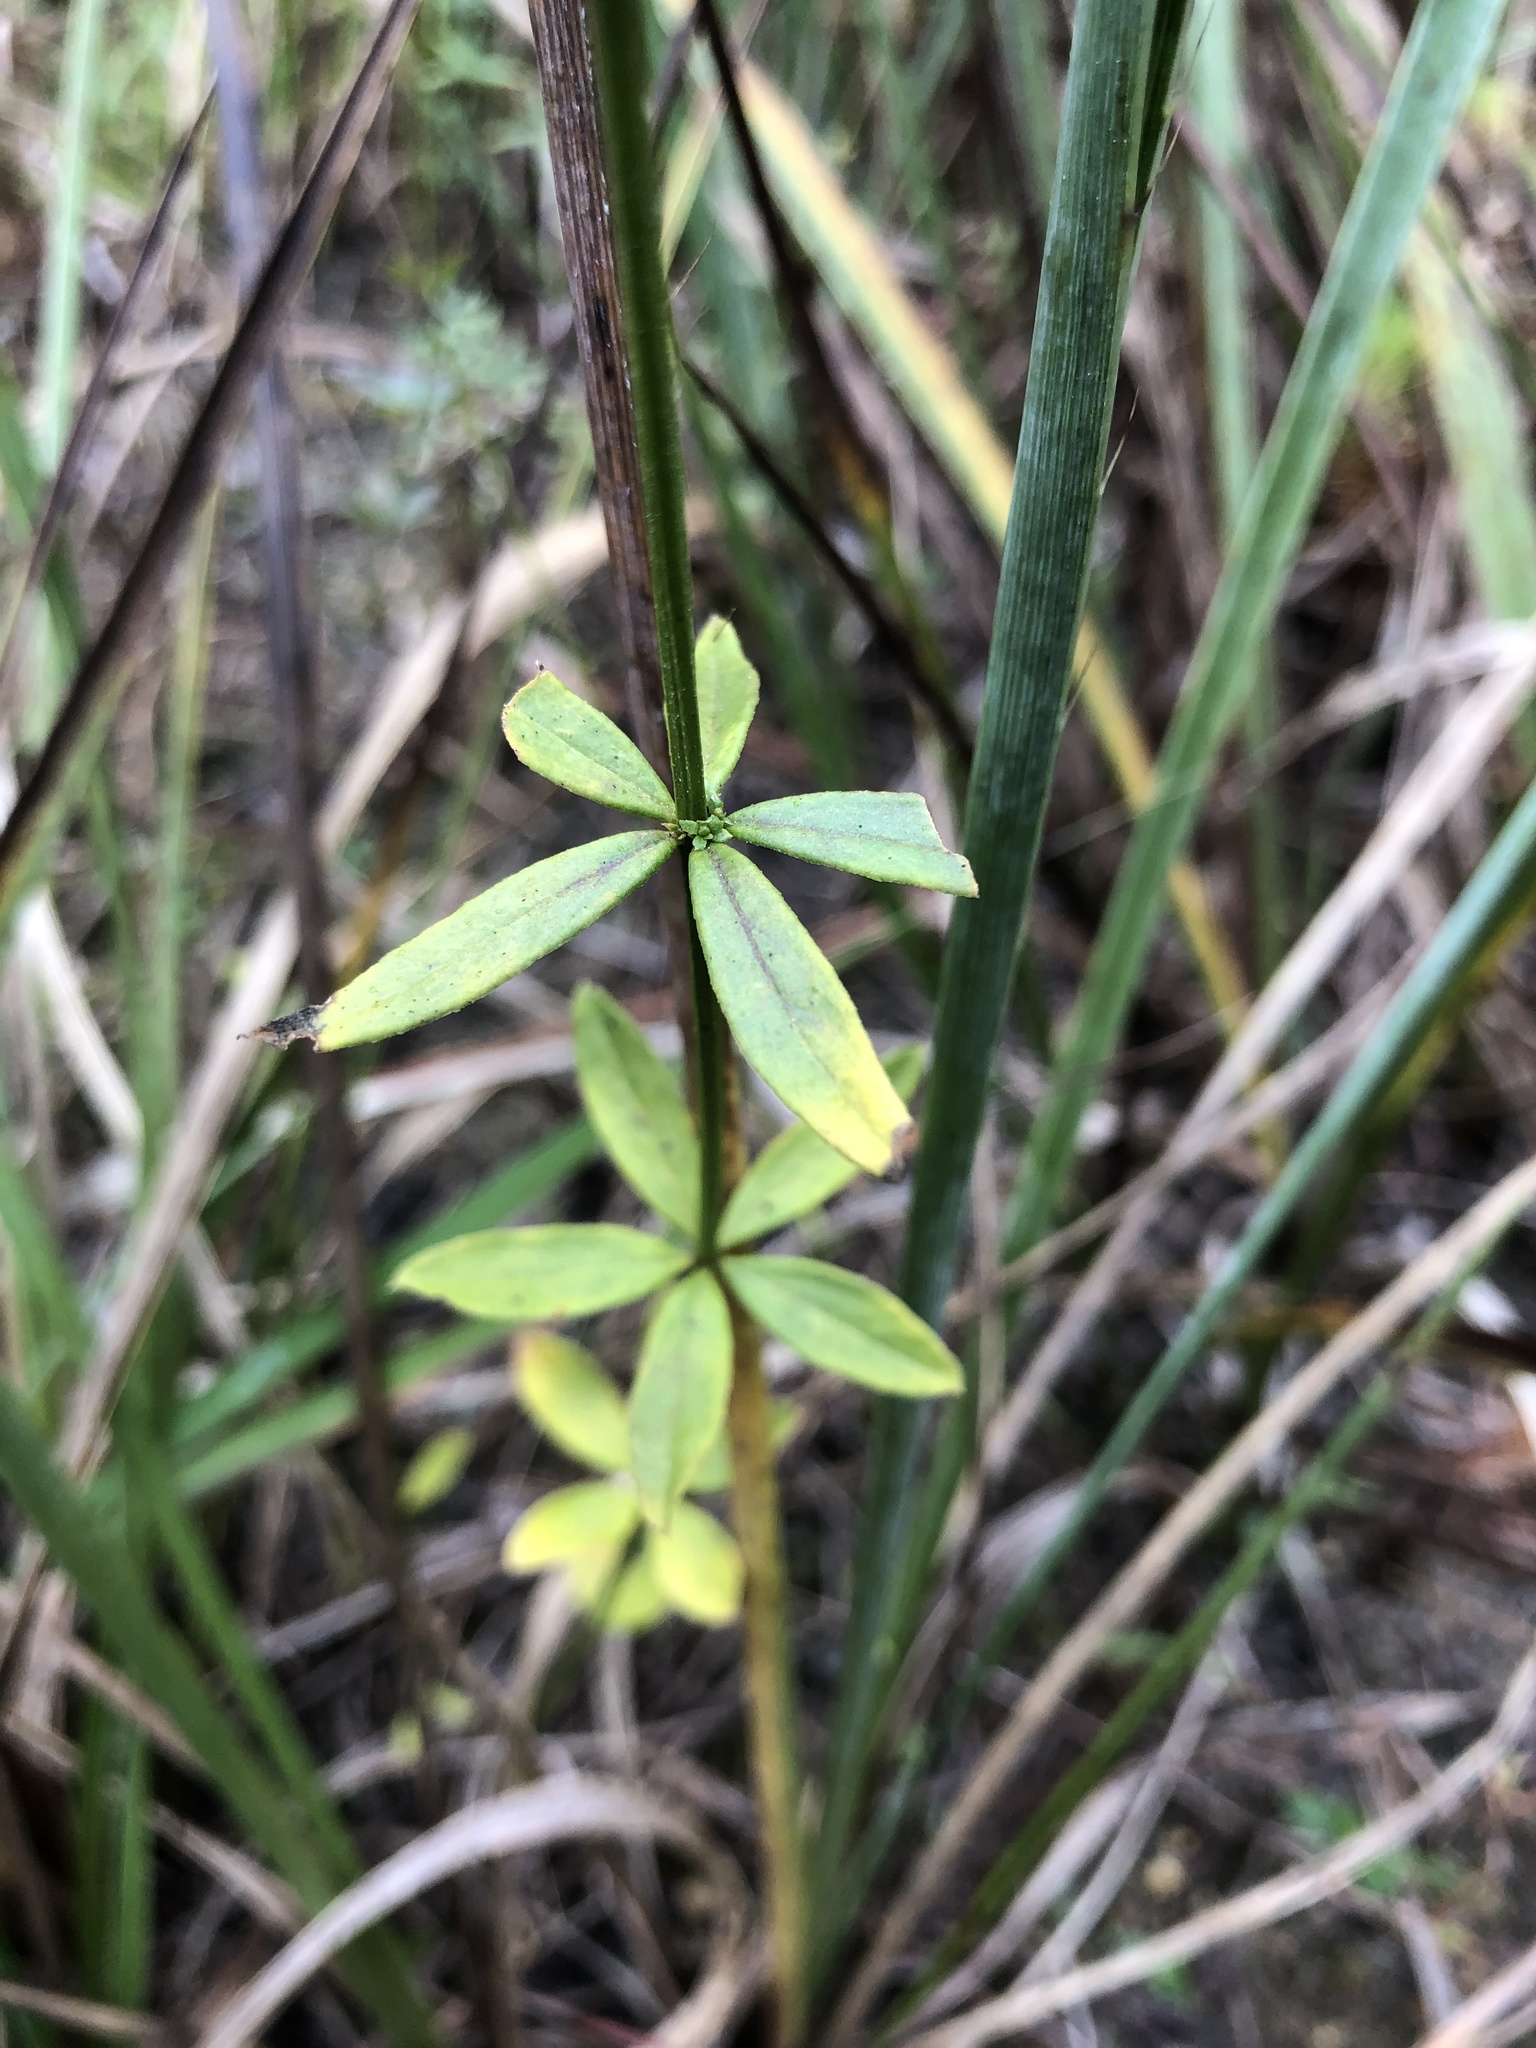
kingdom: Plantae
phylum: Tracheophyta
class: Magnoliopsida
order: Gentianales
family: Rubiaceae
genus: Galium
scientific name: Galium triflorum
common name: Fragrant bedstraw
